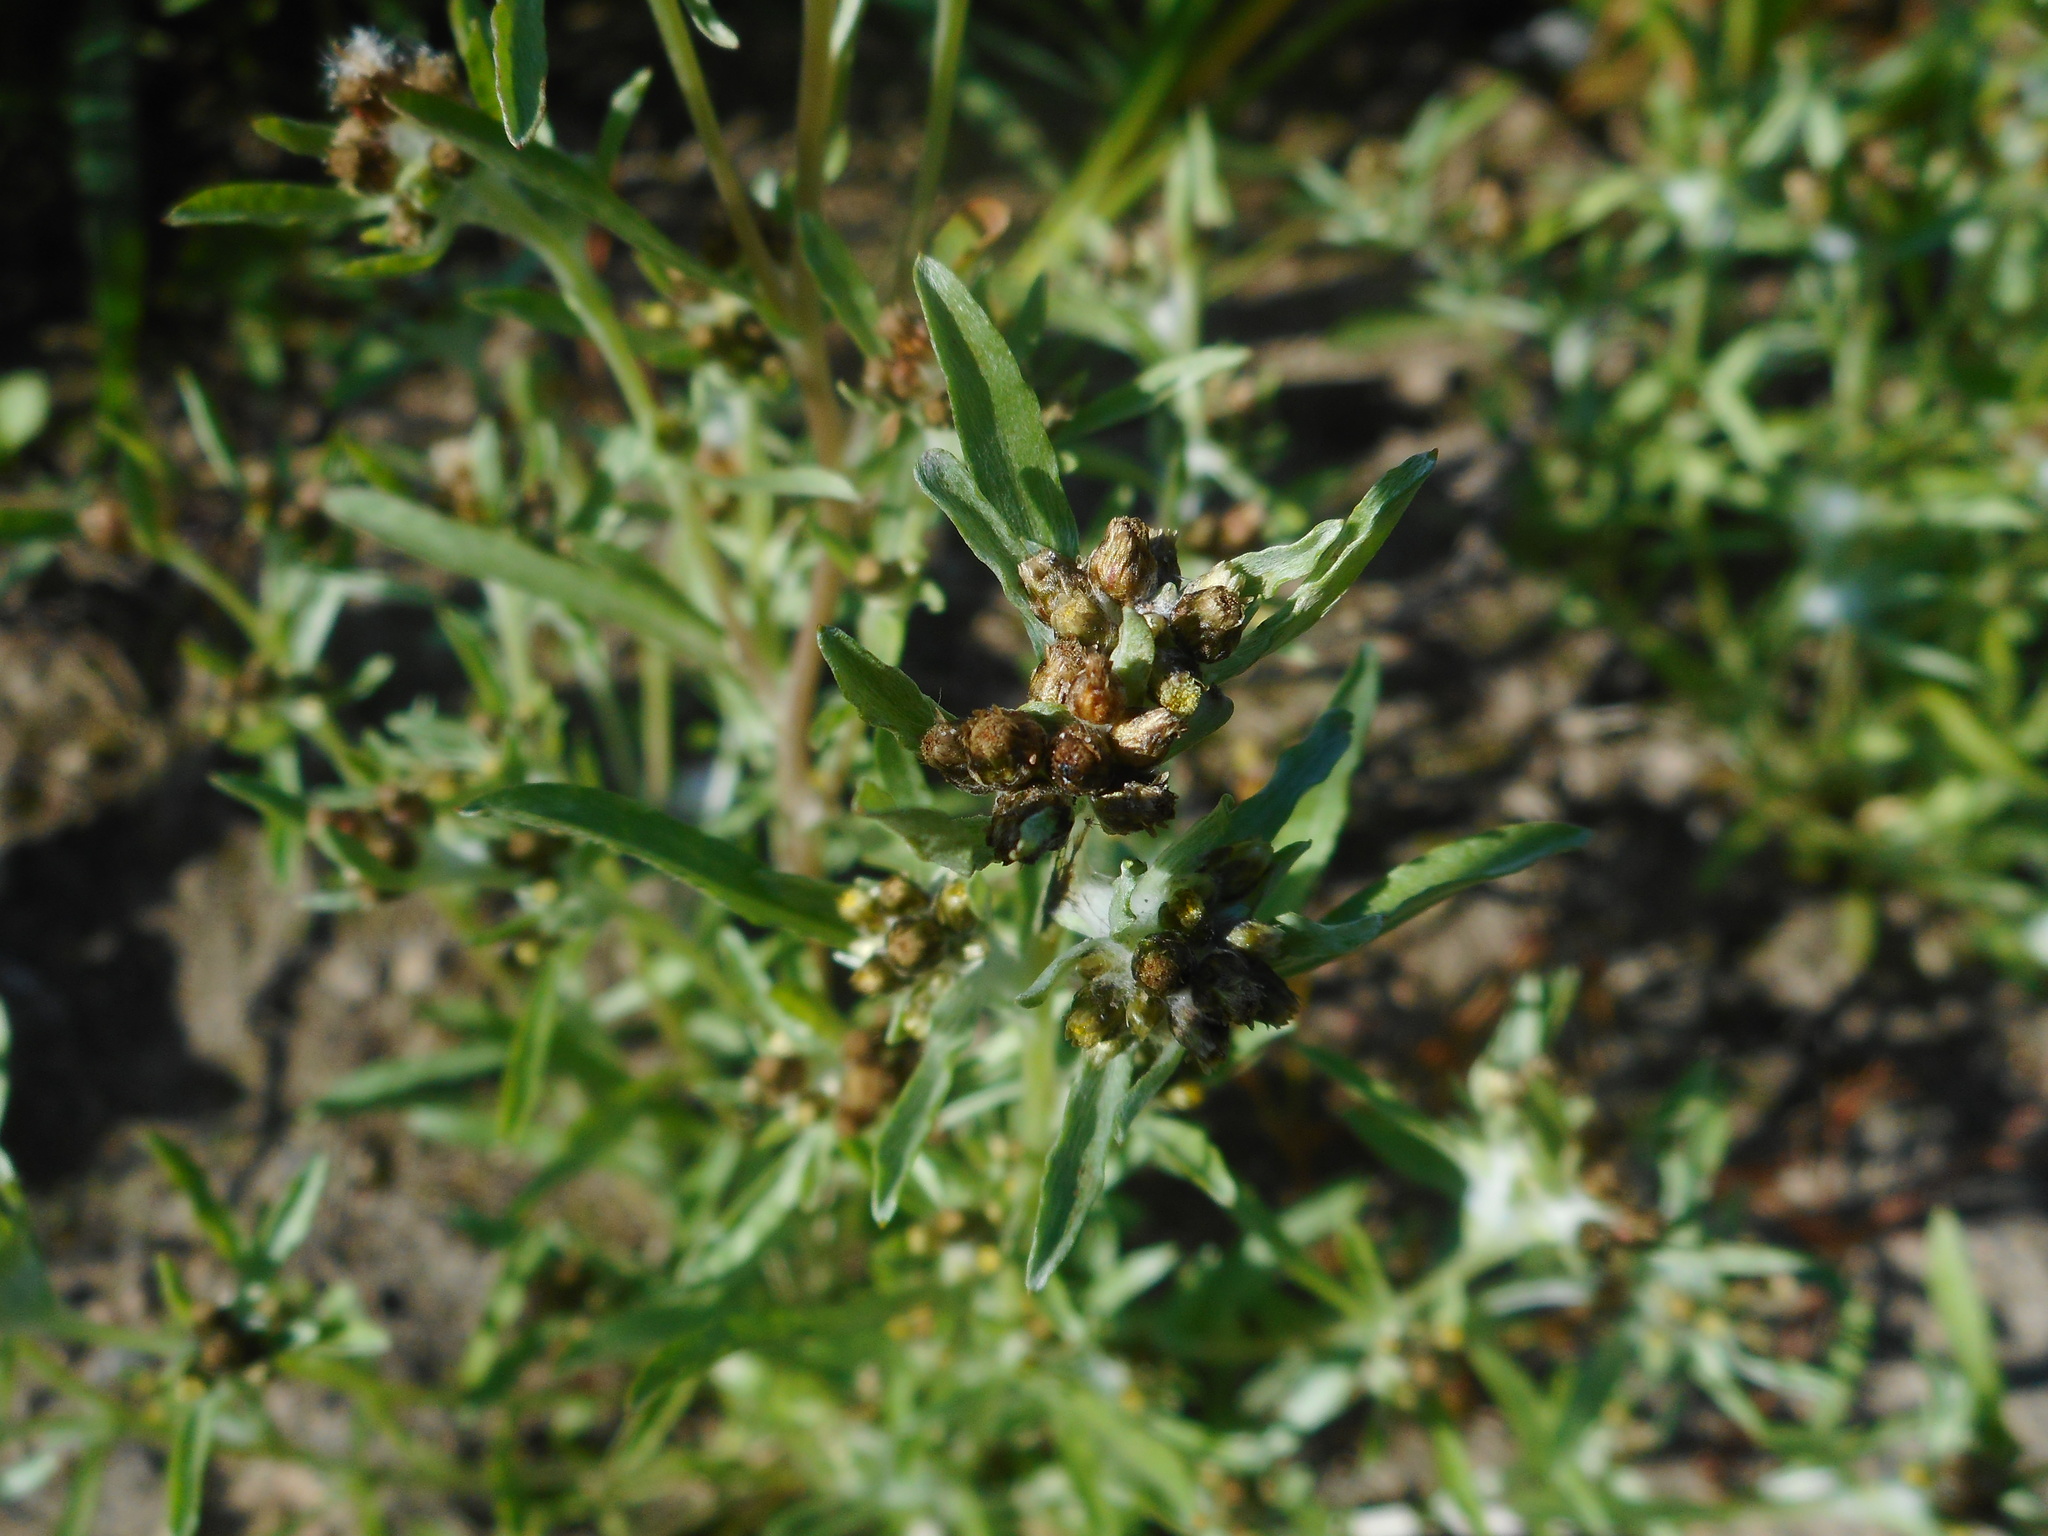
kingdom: Plantae
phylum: Tracheophyta
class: Magnoliopsida
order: Asterales
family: Asteraceae
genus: Gnaphalium
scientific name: Gnaphalium uliginosum
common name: Marsh cudweed
